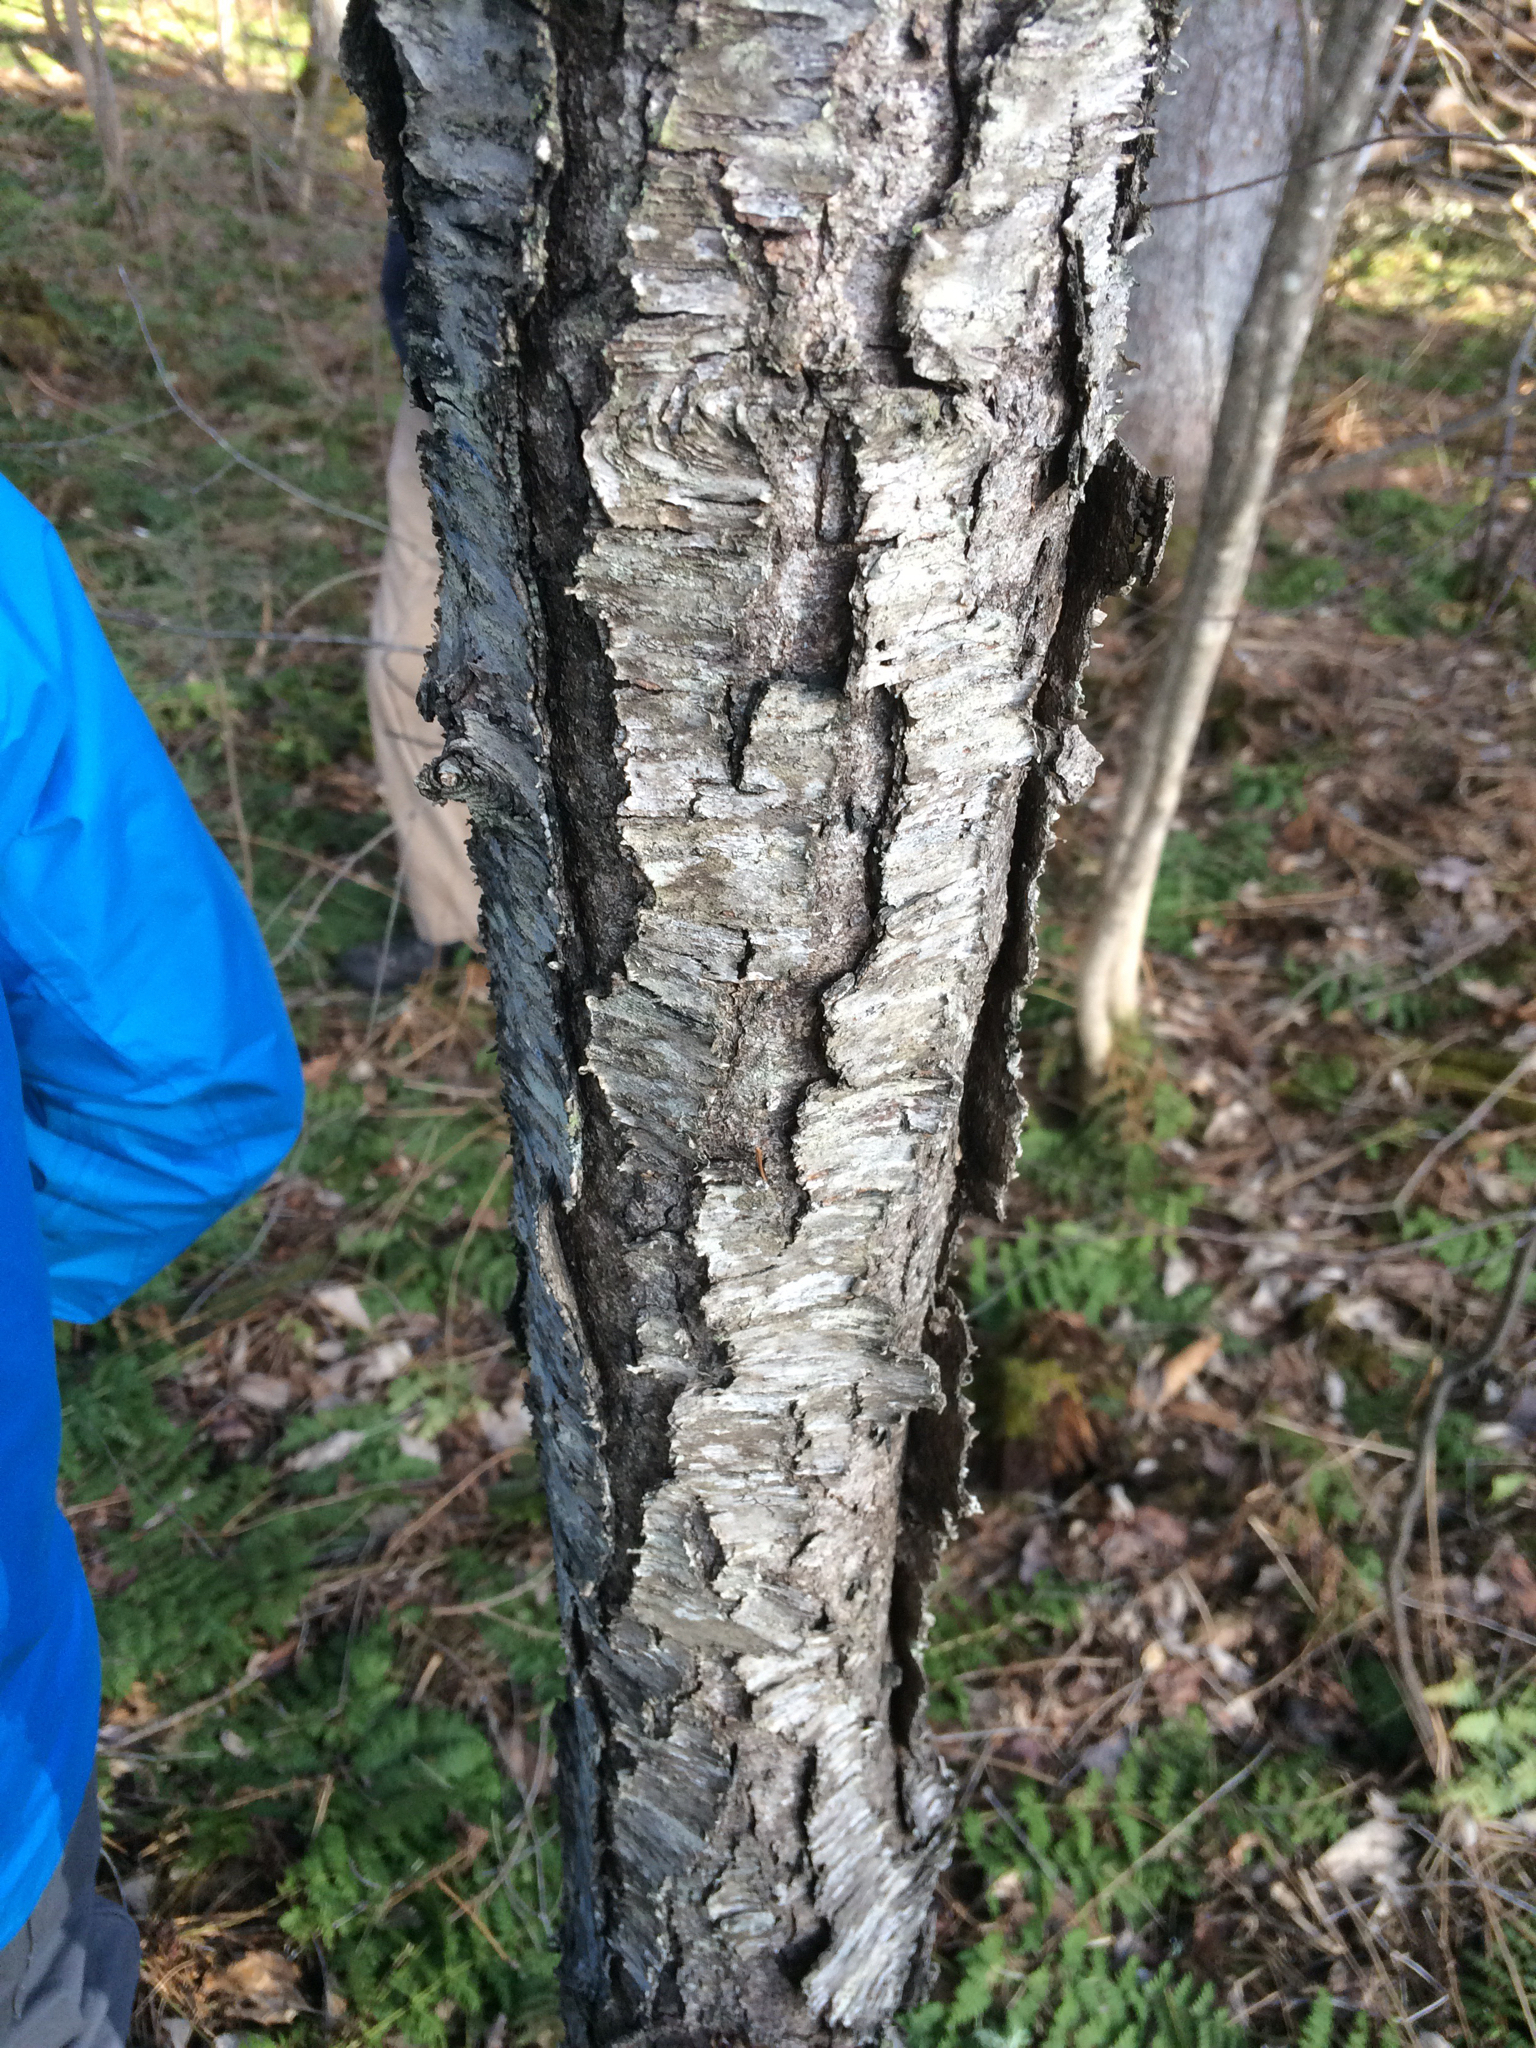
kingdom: Plantae
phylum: Tracheophyta
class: Magnoliopsida
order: Rosales
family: Rosaceae
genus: Prunus
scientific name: Prunus serotina
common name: Black cherry
